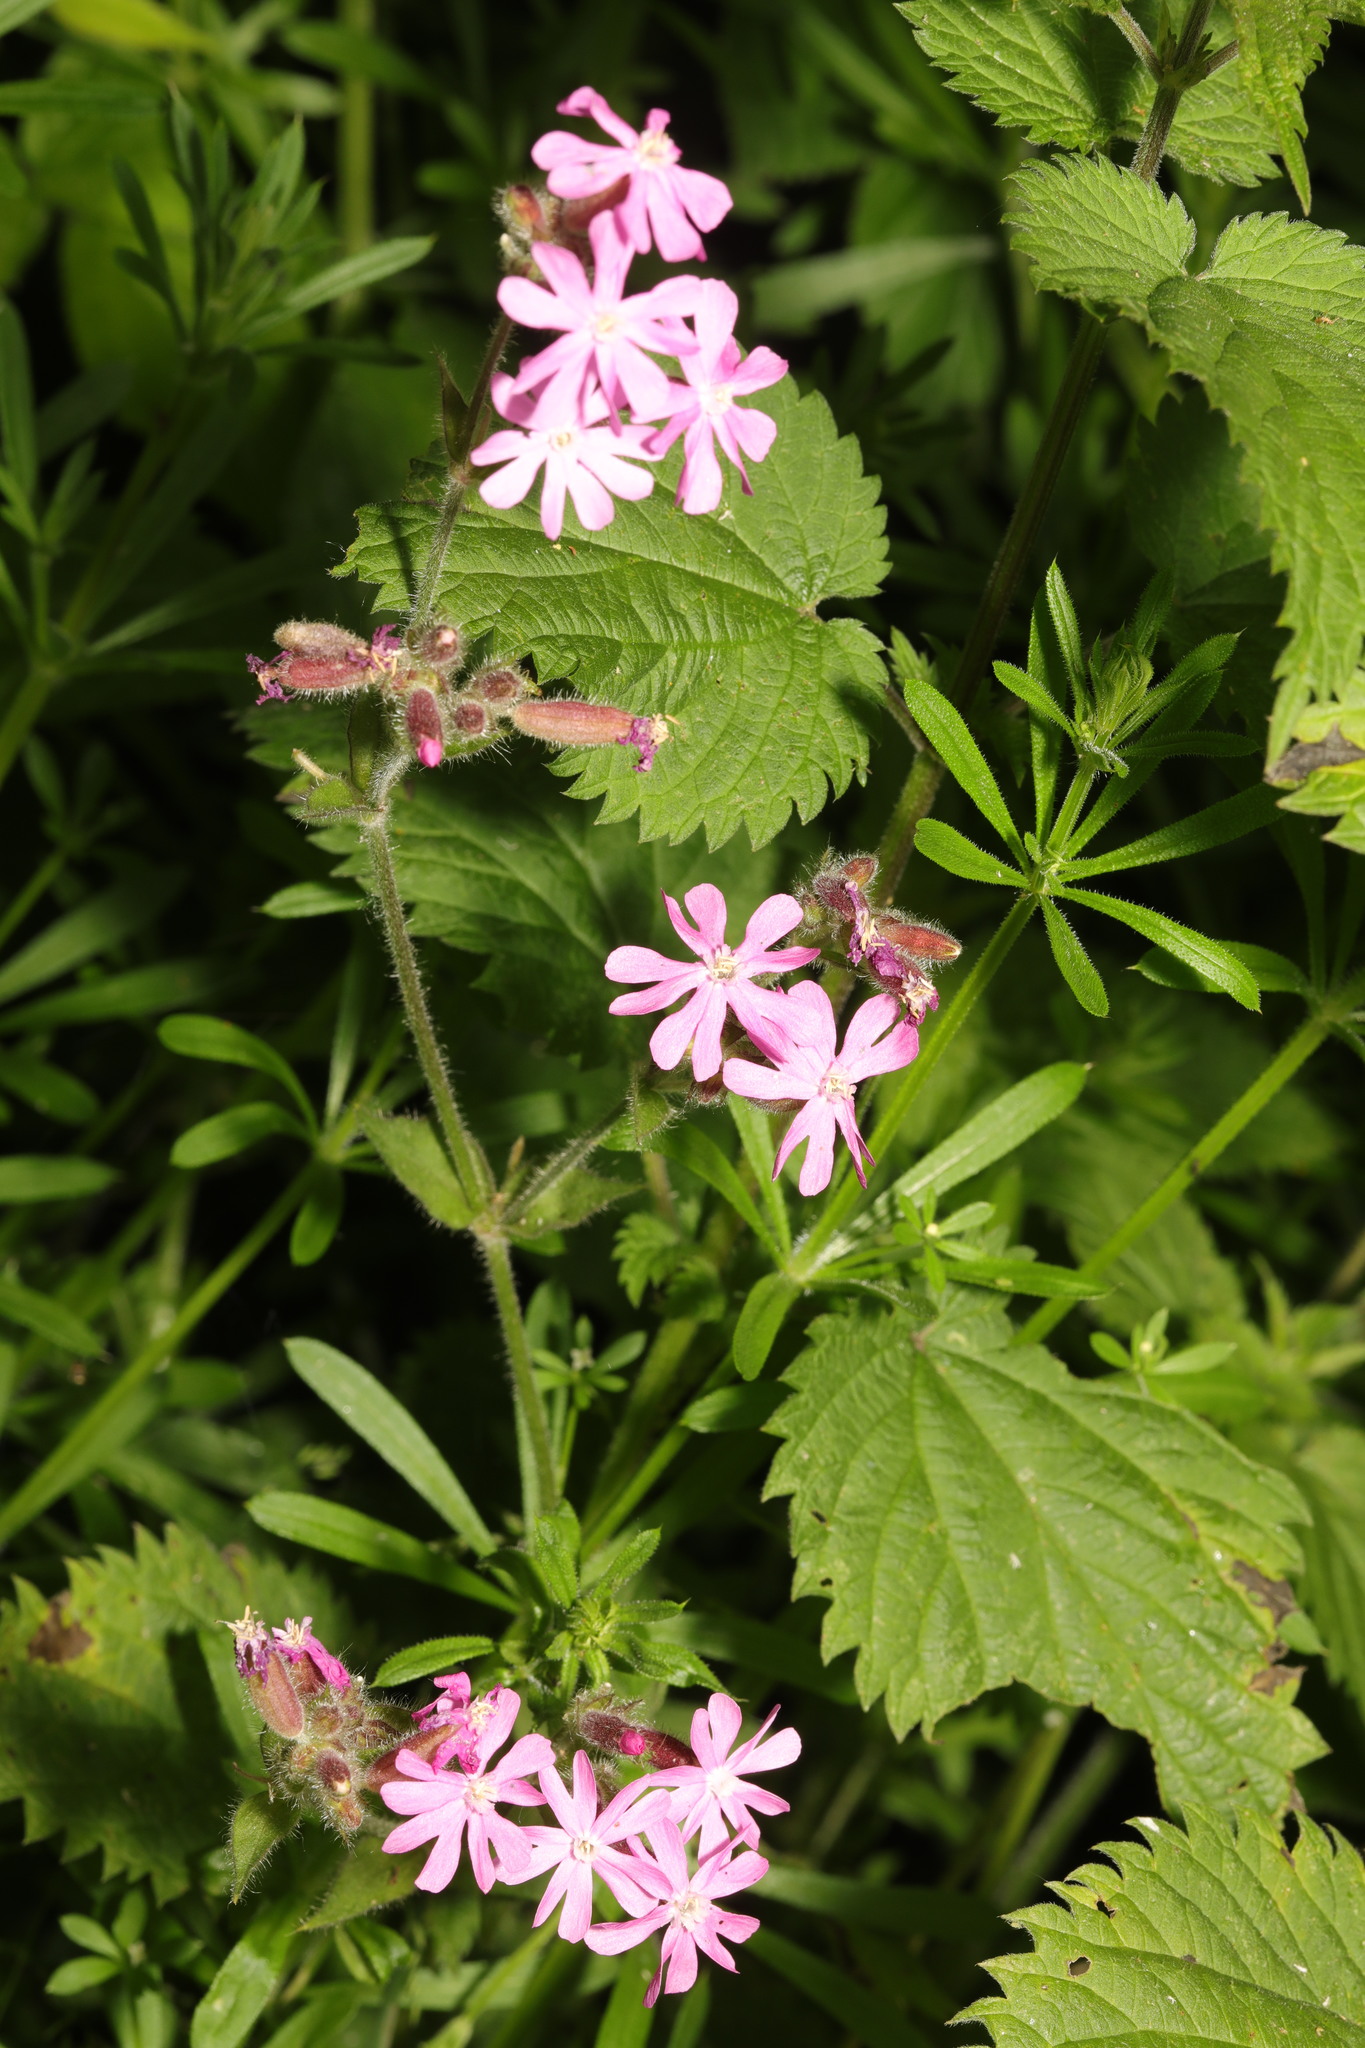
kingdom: Plantae
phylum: Tracheophyta
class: Magnoliopsida
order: Caryophyllales
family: Caryophyllaceae
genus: Silene
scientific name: Silene dioica
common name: Red campion
